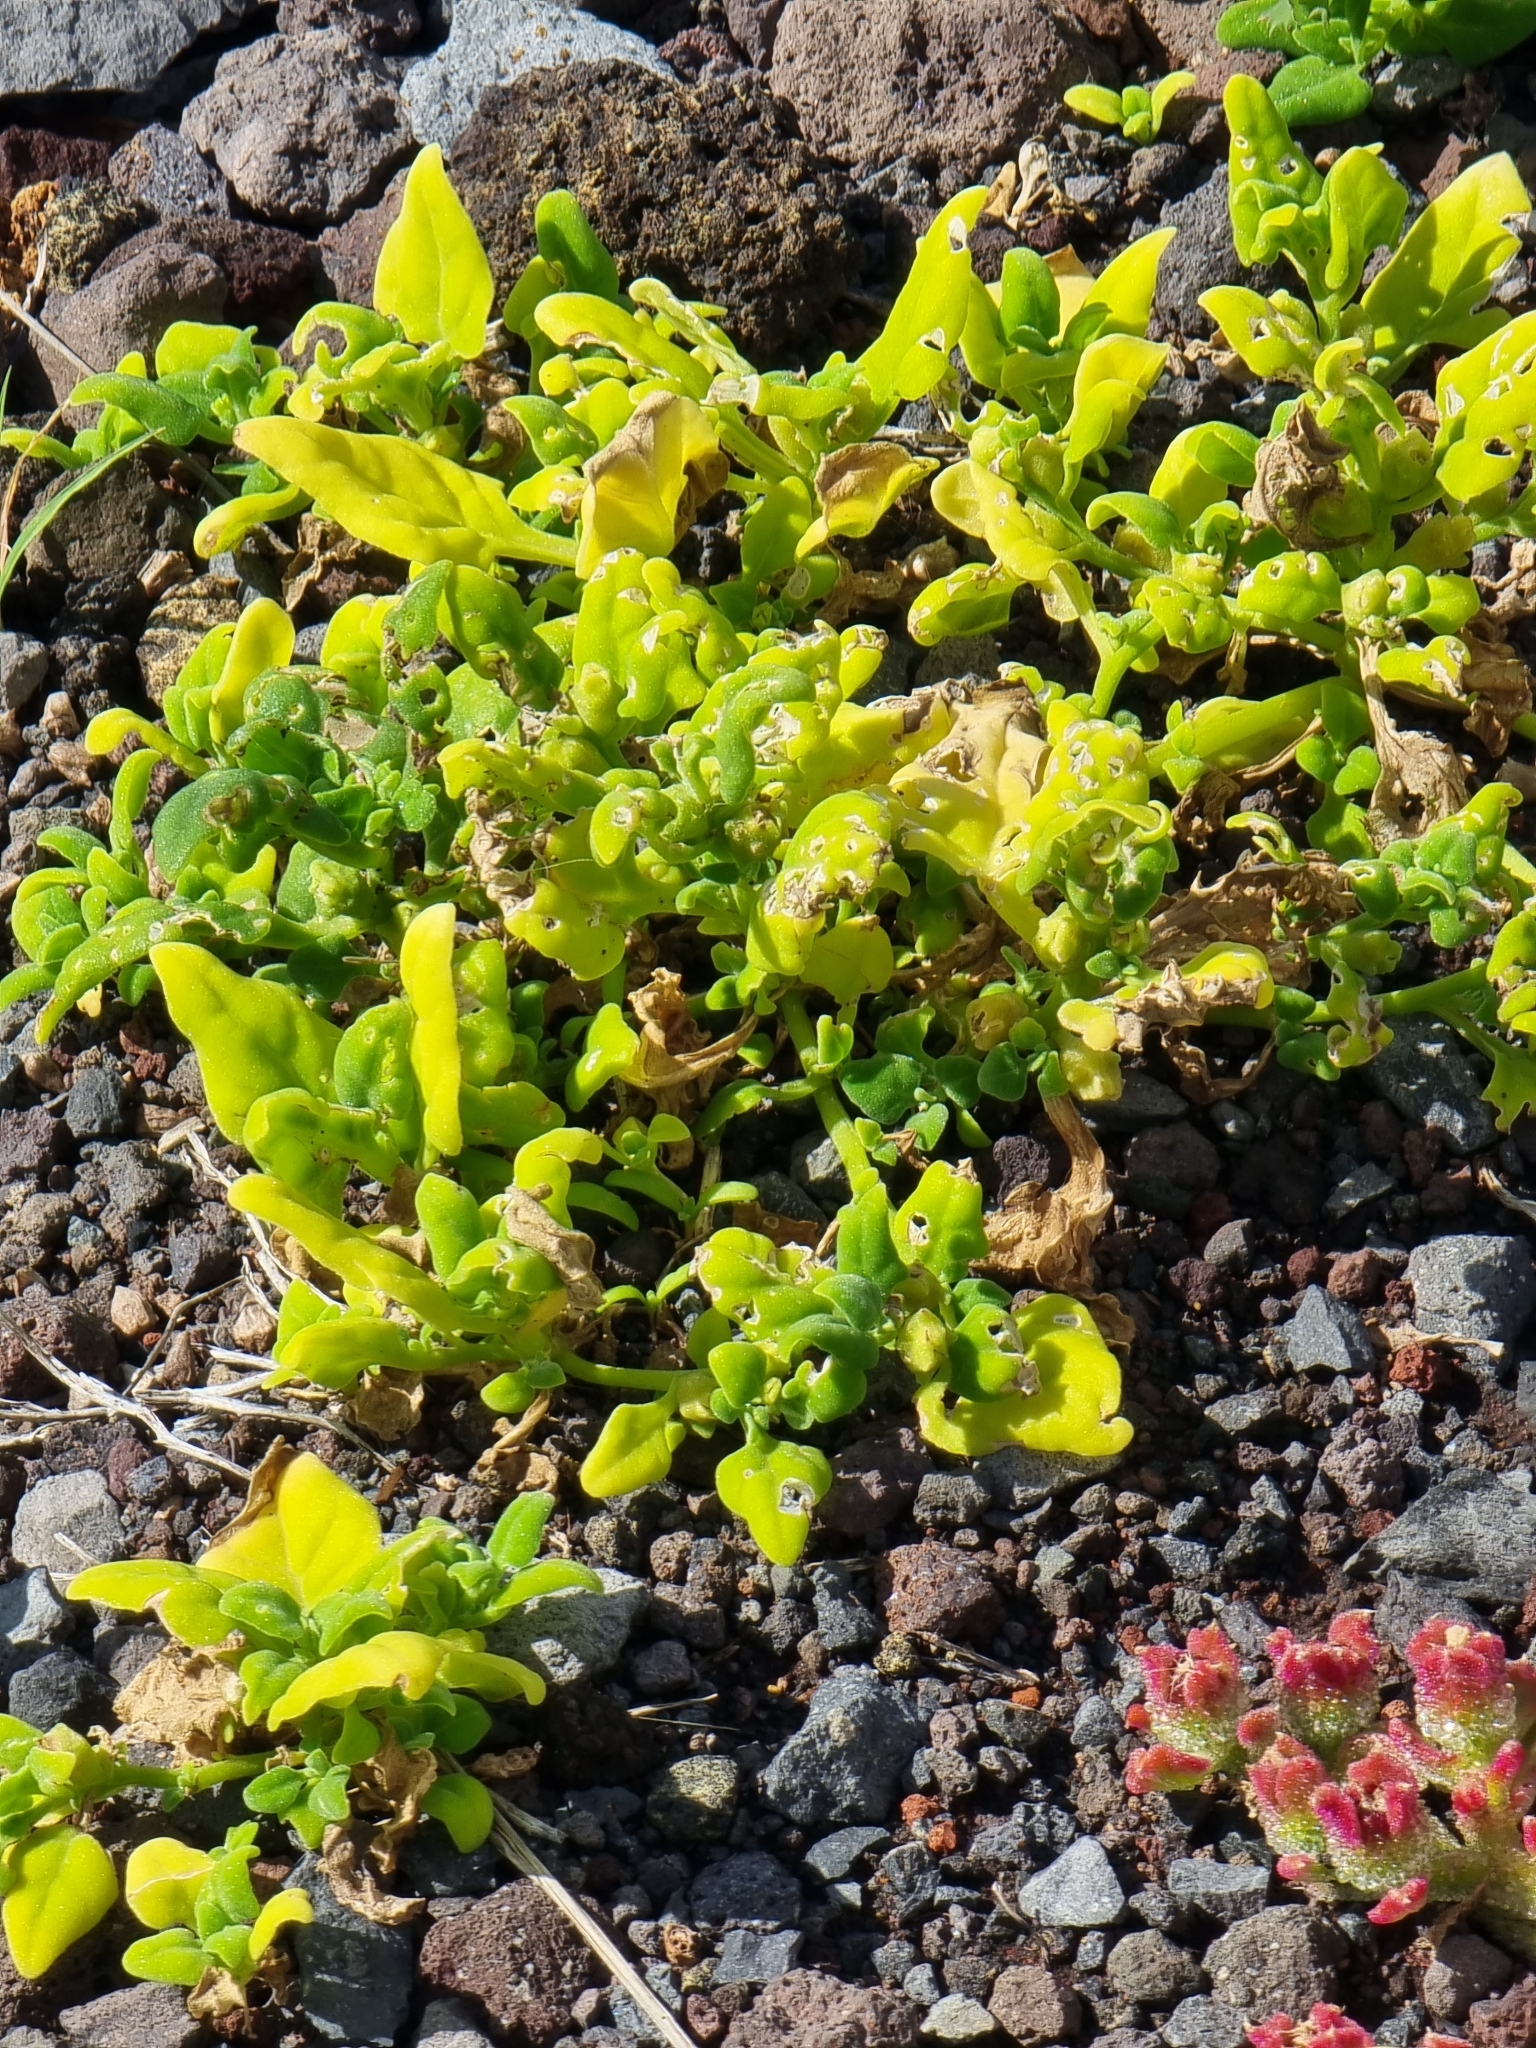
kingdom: Plantae
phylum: Tracheophyta
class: Magnoliopsida
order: Caryophyllales
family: Aizoaceae
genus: Tetragonia
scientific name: Tetragonia tetragonoides
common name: New zealand-spinach
